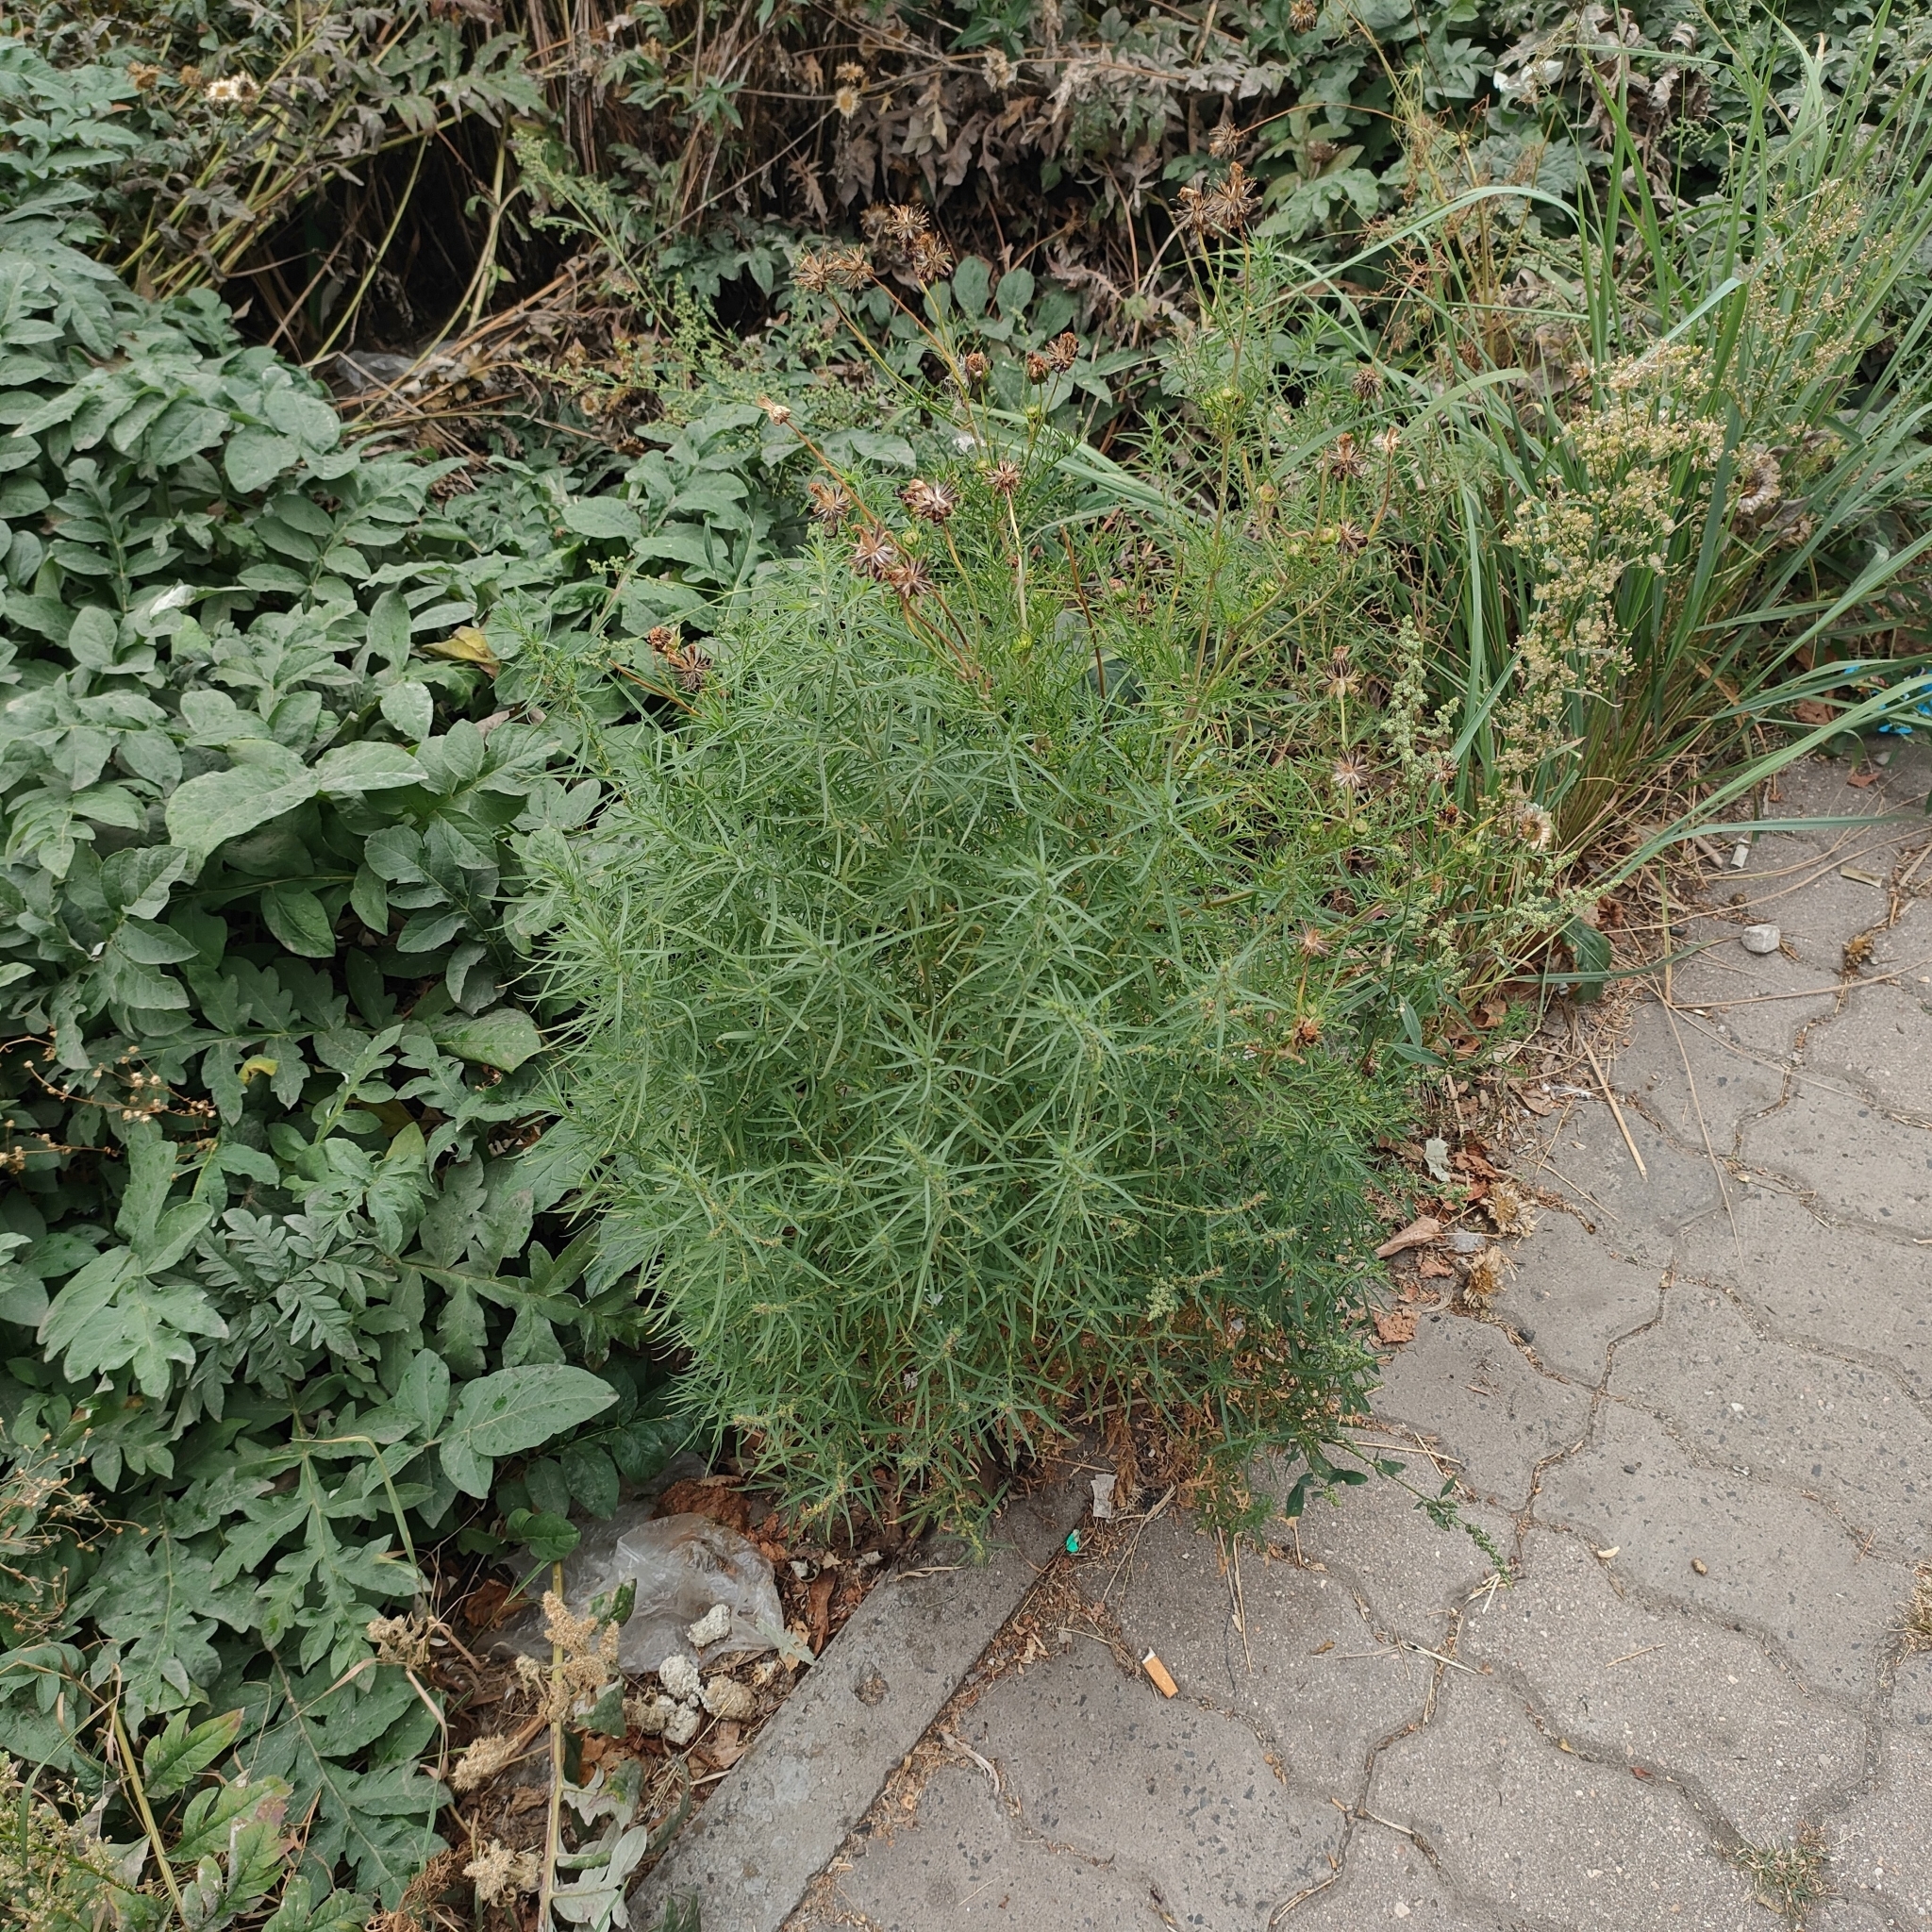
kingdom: Plantae
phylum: Tracheophyta
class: Magnoliopsida
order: Caryophyllales
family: Amaranthaceae
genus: Bassia
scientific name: Bassia scoparia
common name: Belvedere
